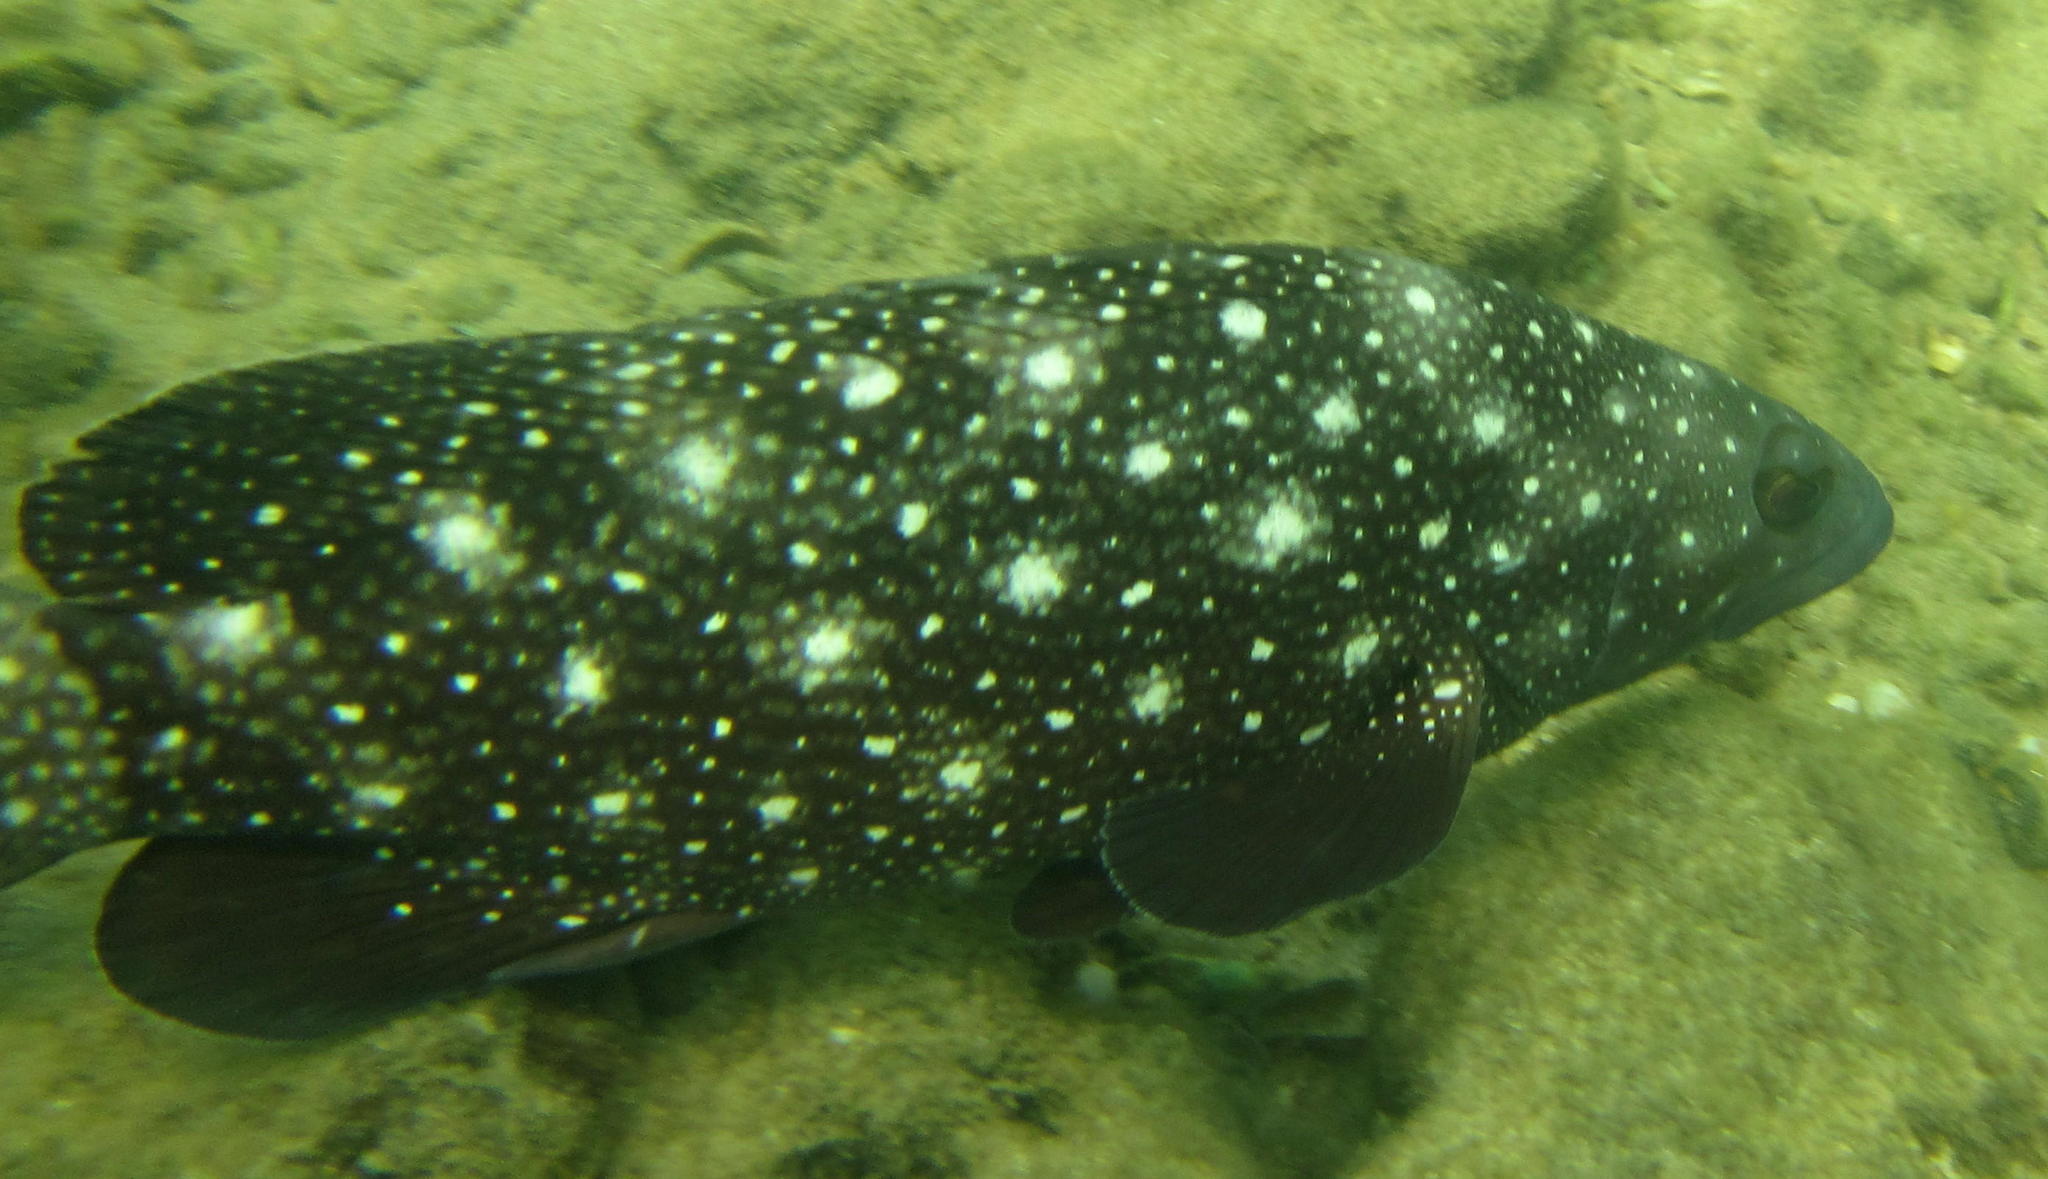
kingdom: Animalia
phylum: Chordata
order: Perciformes
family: Serranidae
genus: Epinephelus
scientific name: Epinephelus coeruleopunctatus
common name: Whitespotted grouper
